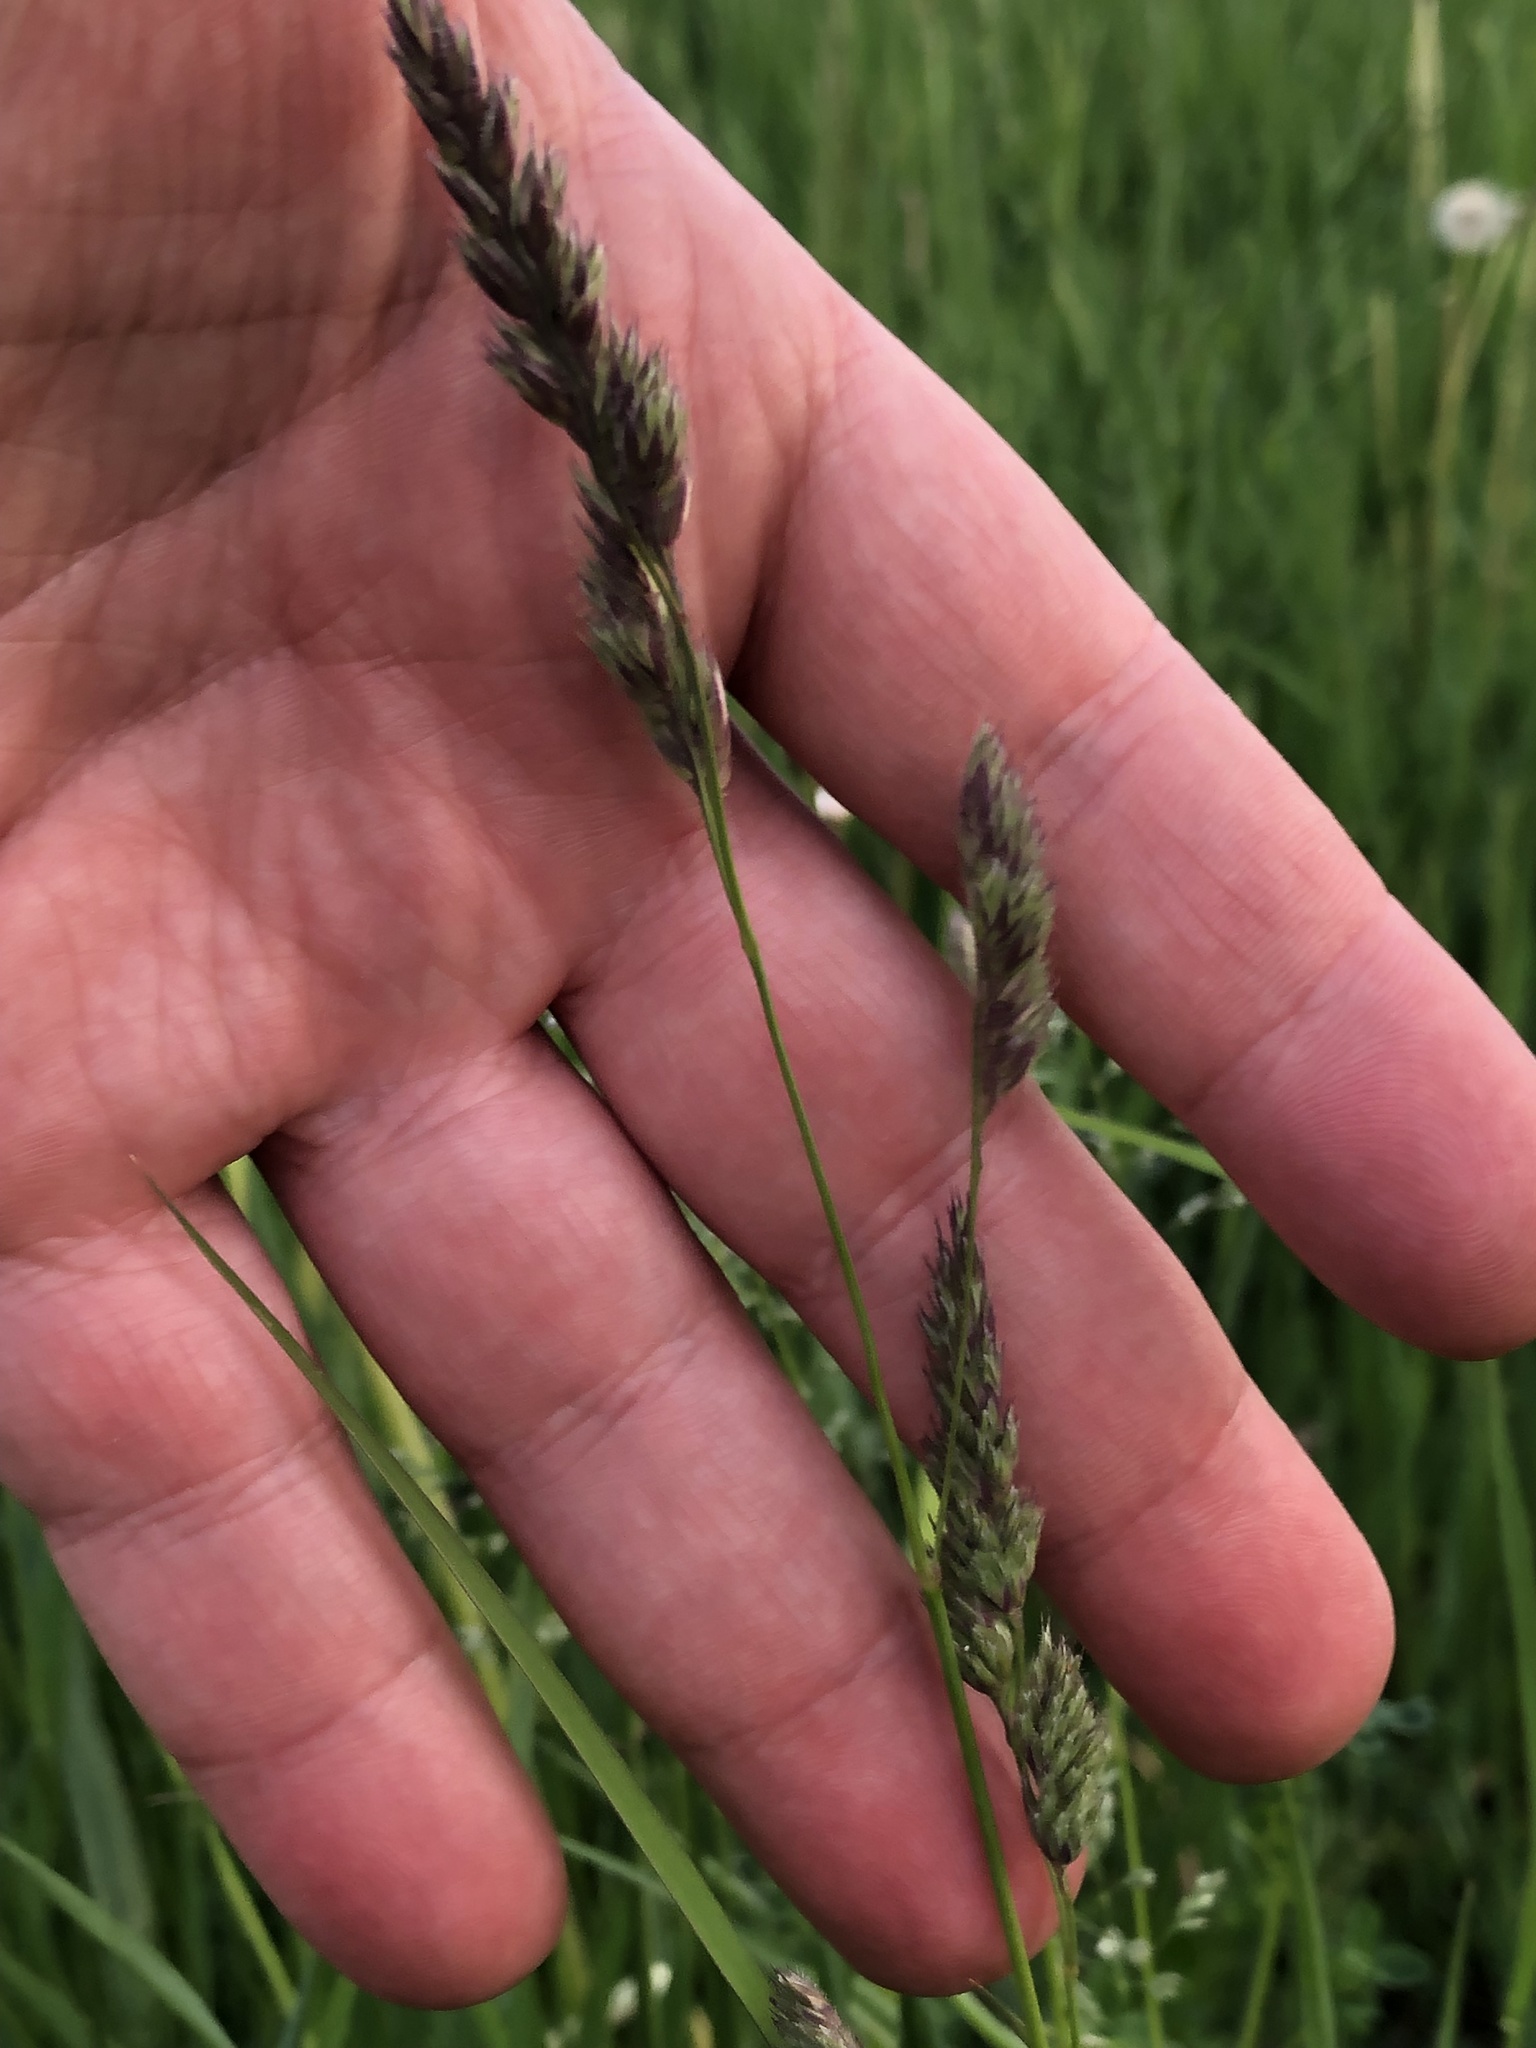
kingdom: Plantae
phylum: Tracheophyta
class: Liliopsida
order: Poales
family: Poaceae
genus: Dactylis
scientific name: Dactylis glomerata
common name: Orchardgrass
